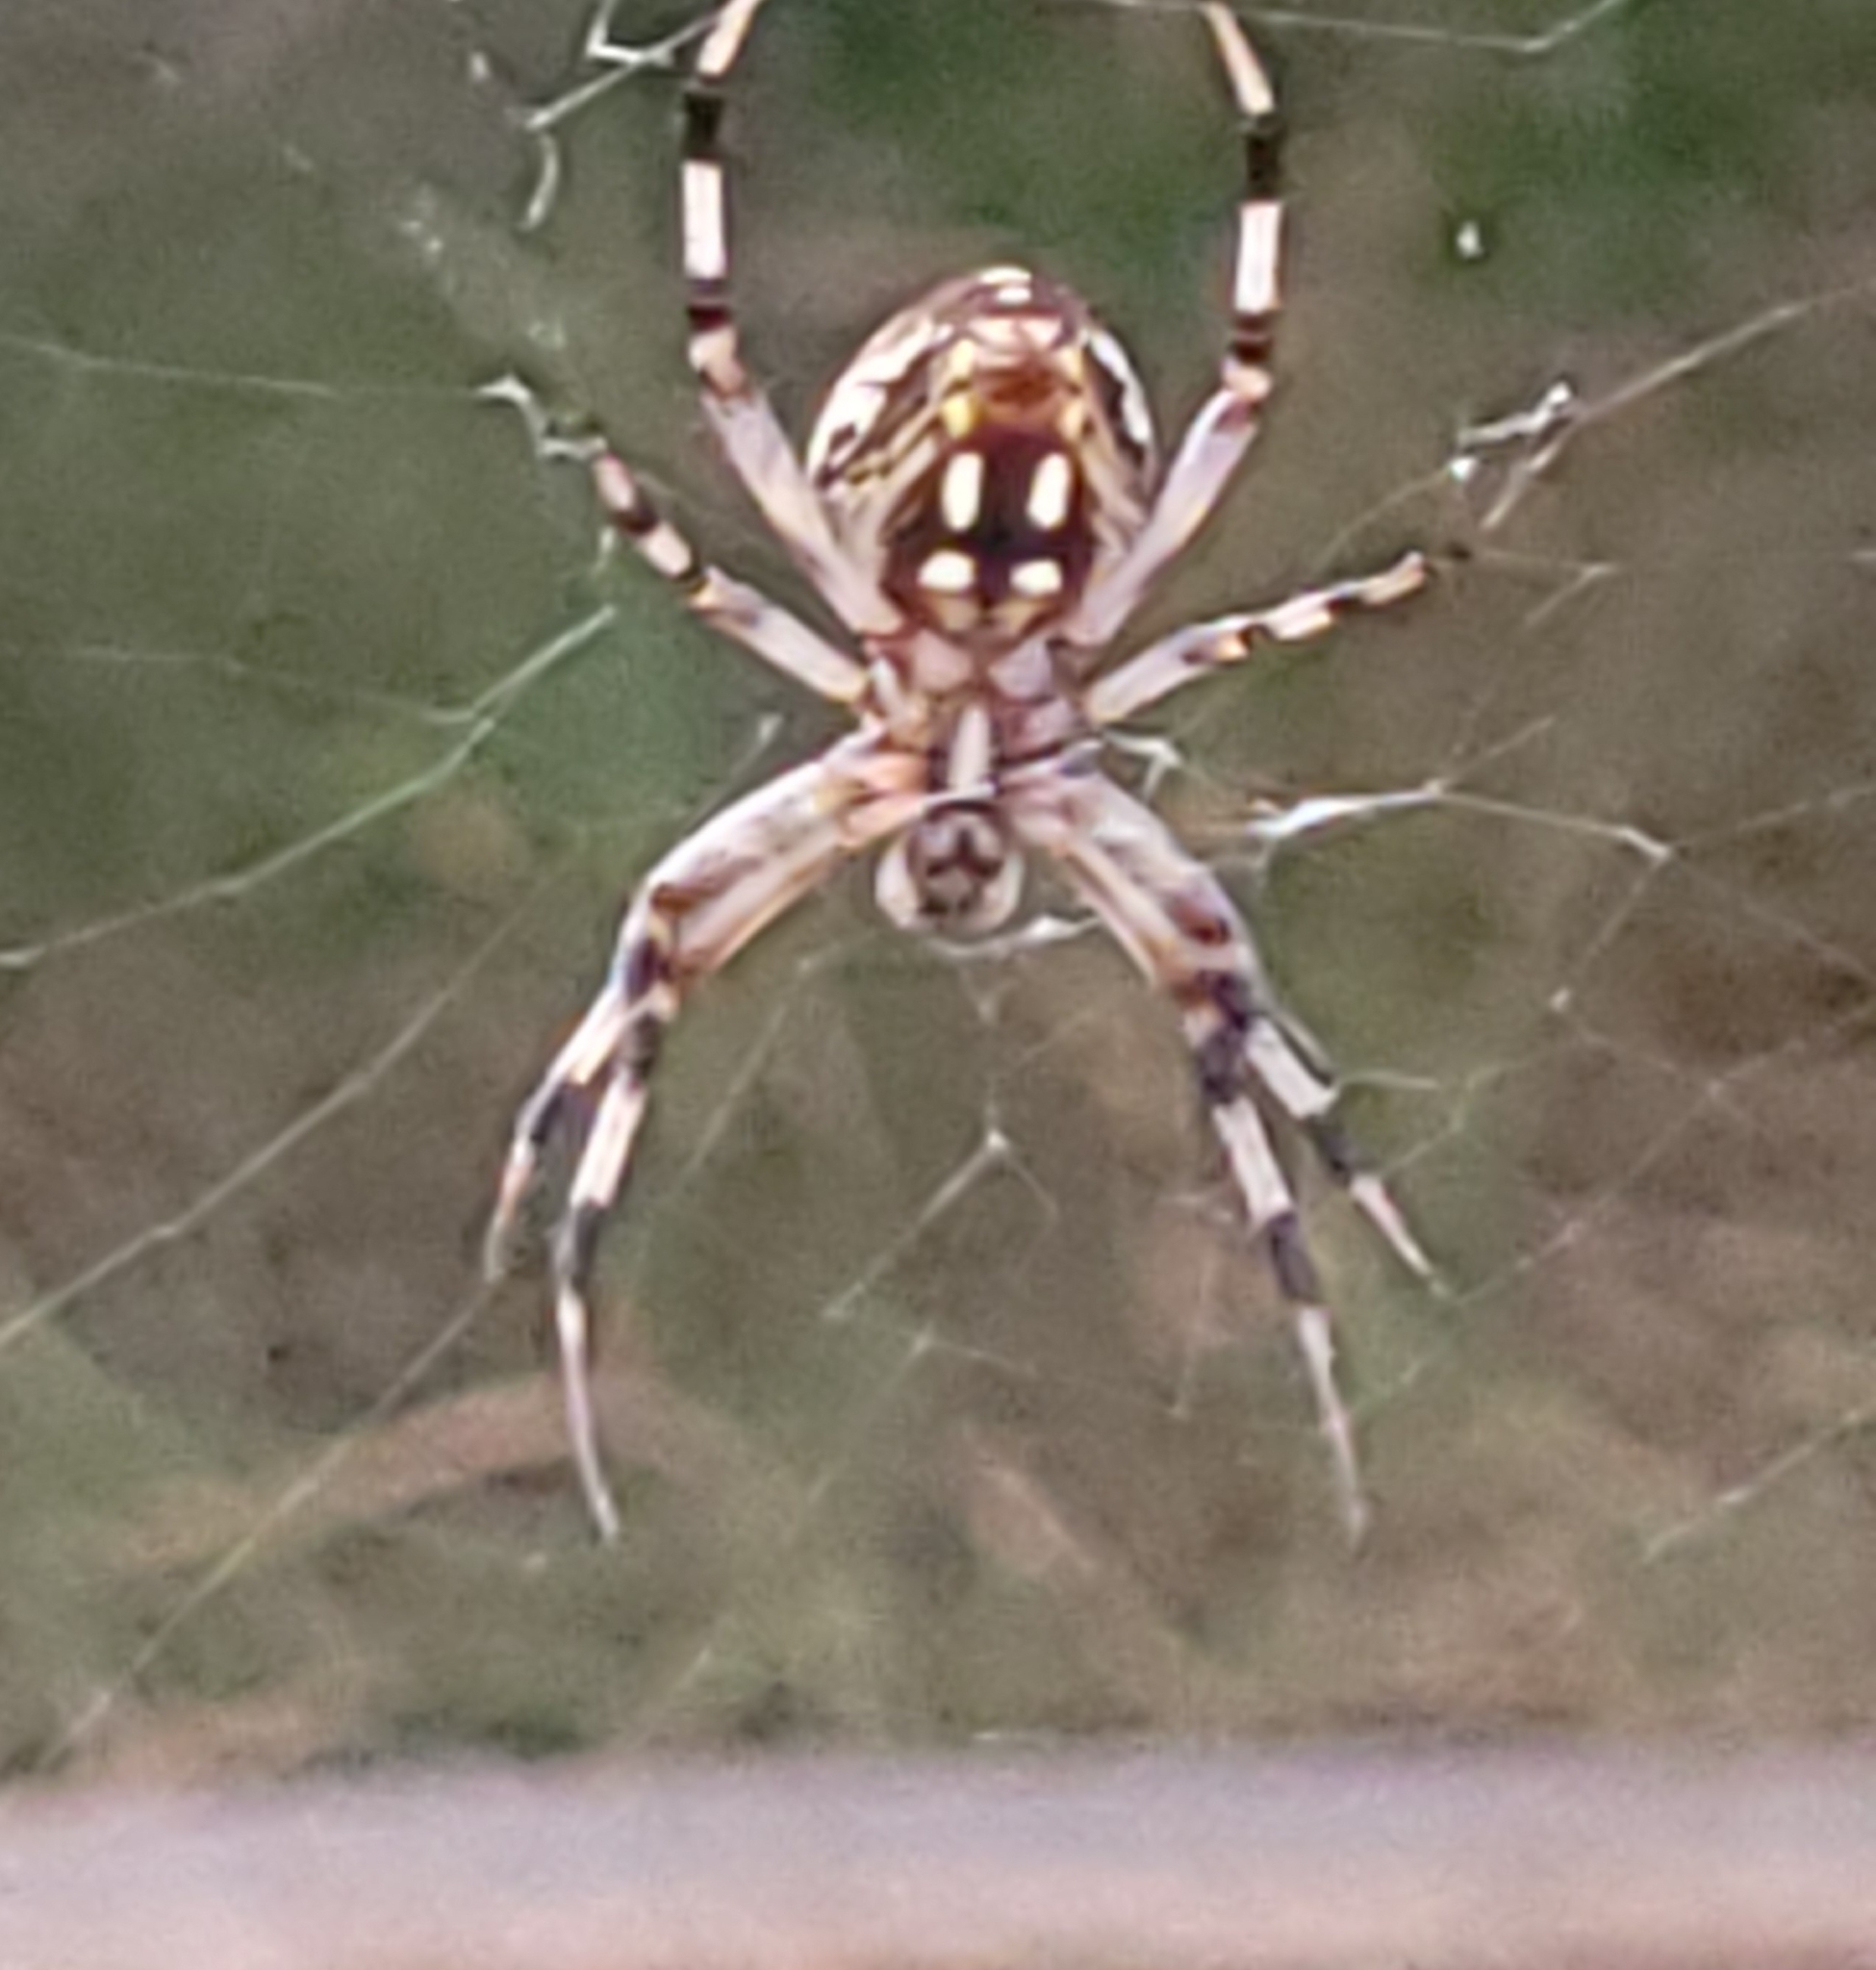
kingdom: Animalia
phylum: Arthropoda
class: Arachnida
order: Araneae
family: Araneidae
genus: Neoscona
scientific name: Neoscona oaxacensis
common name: Orb weavers
